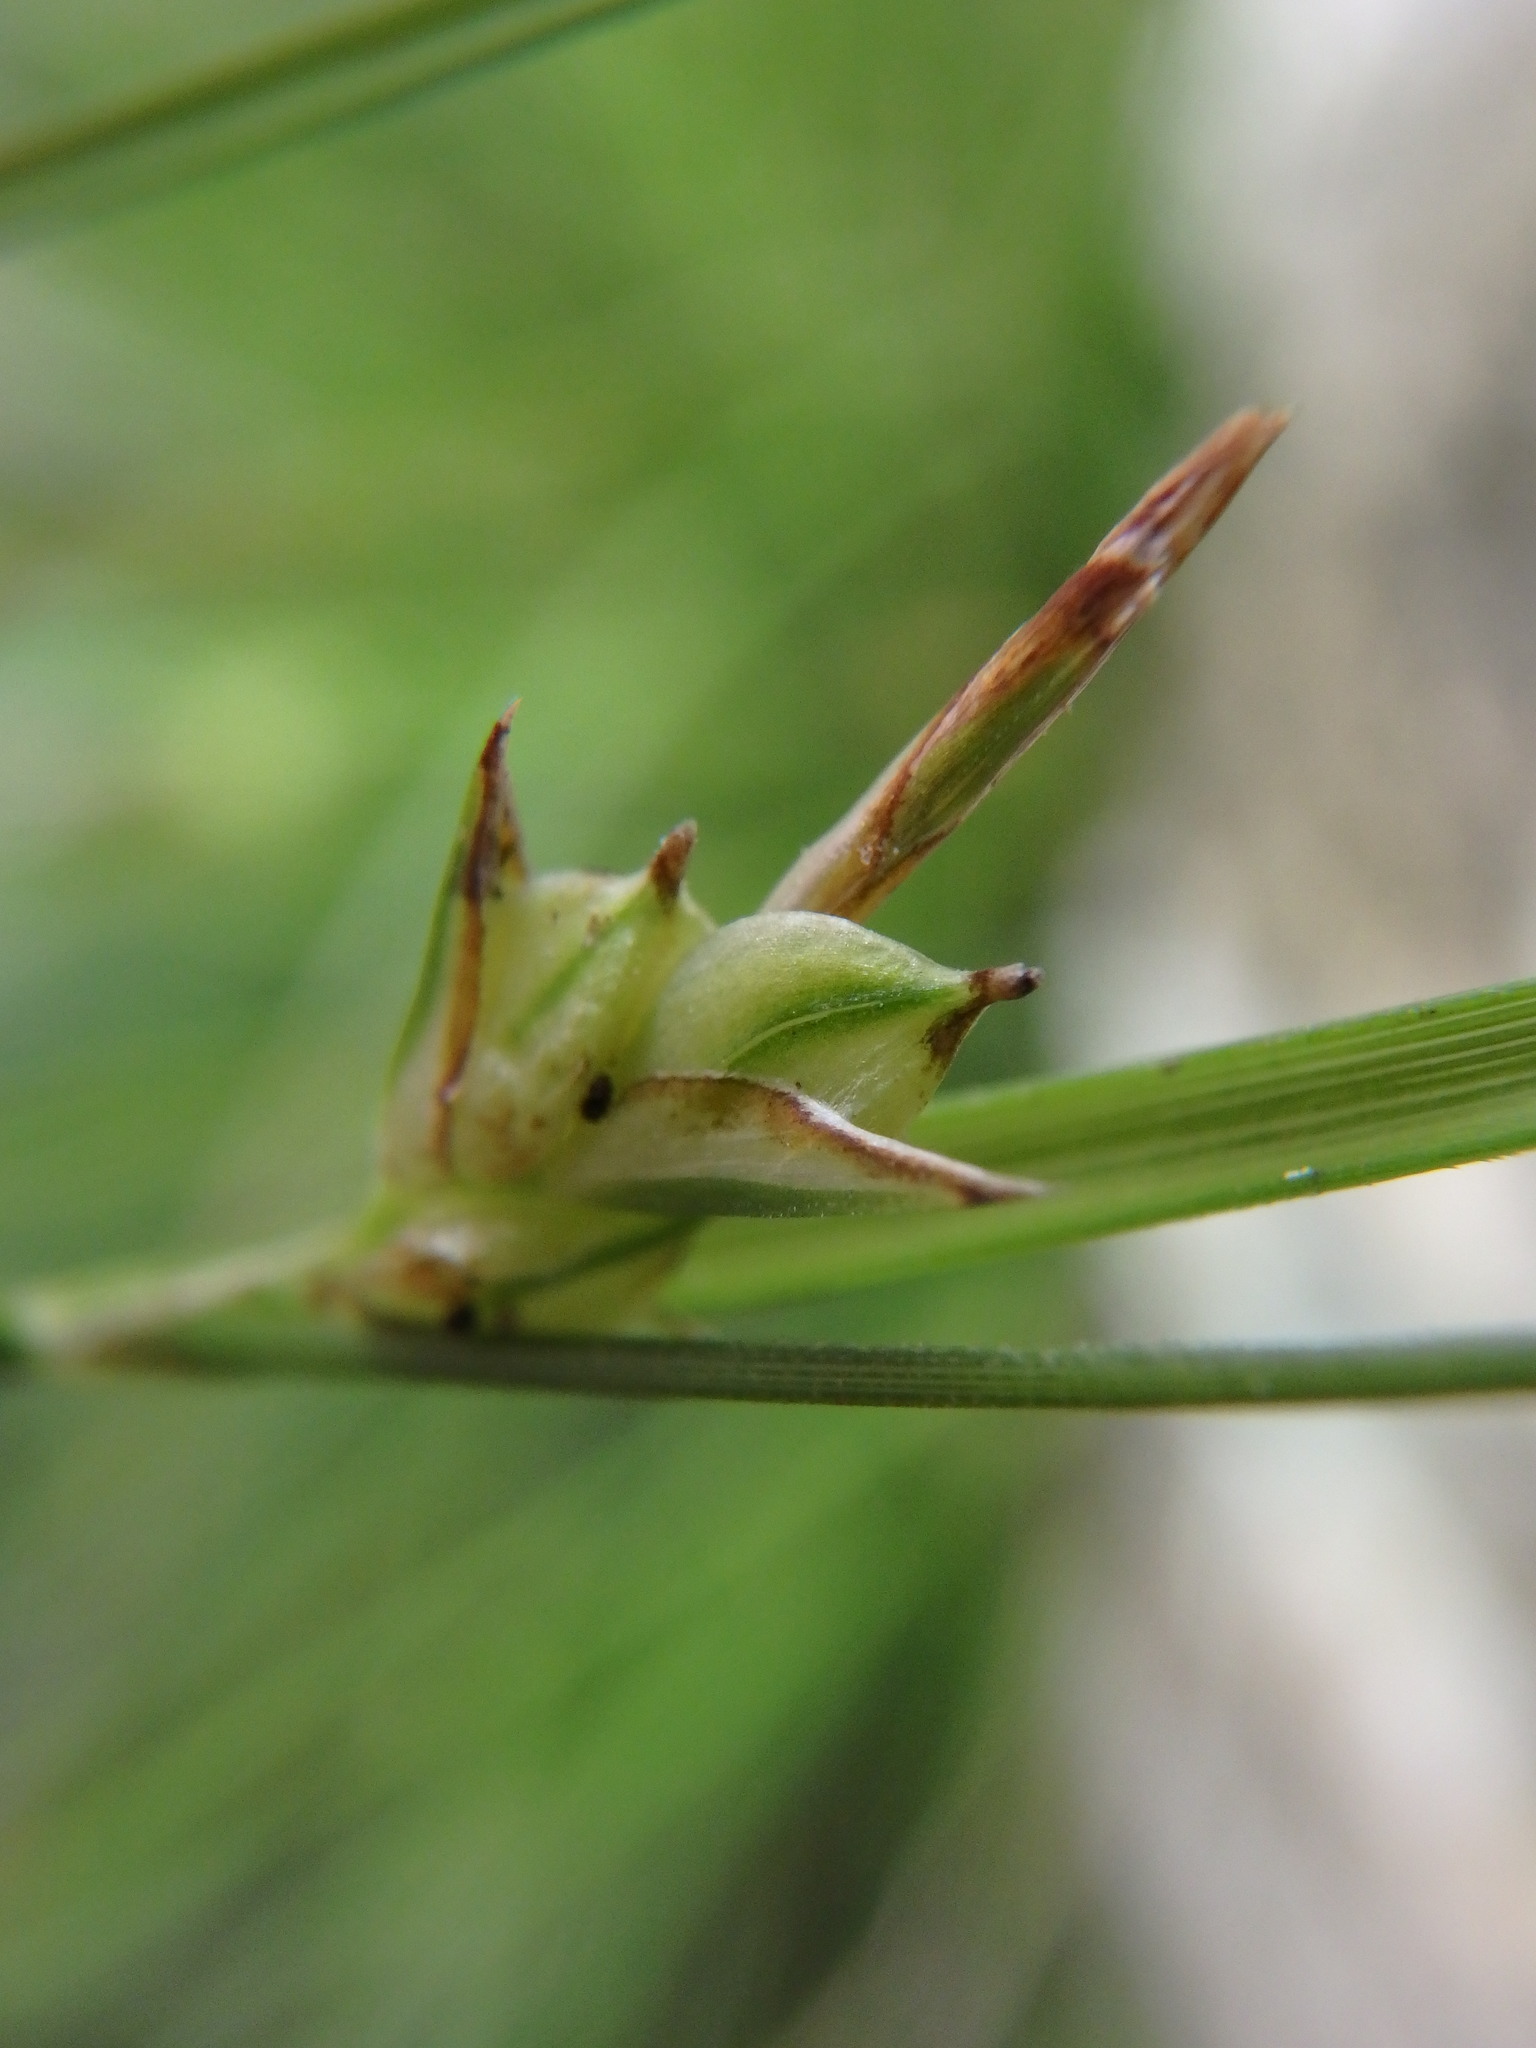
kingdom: Plantae
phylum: Tracheophyta
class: Liliopsida
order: Poales
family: Cyperaceae
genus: Carex
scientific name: Carex distachya
